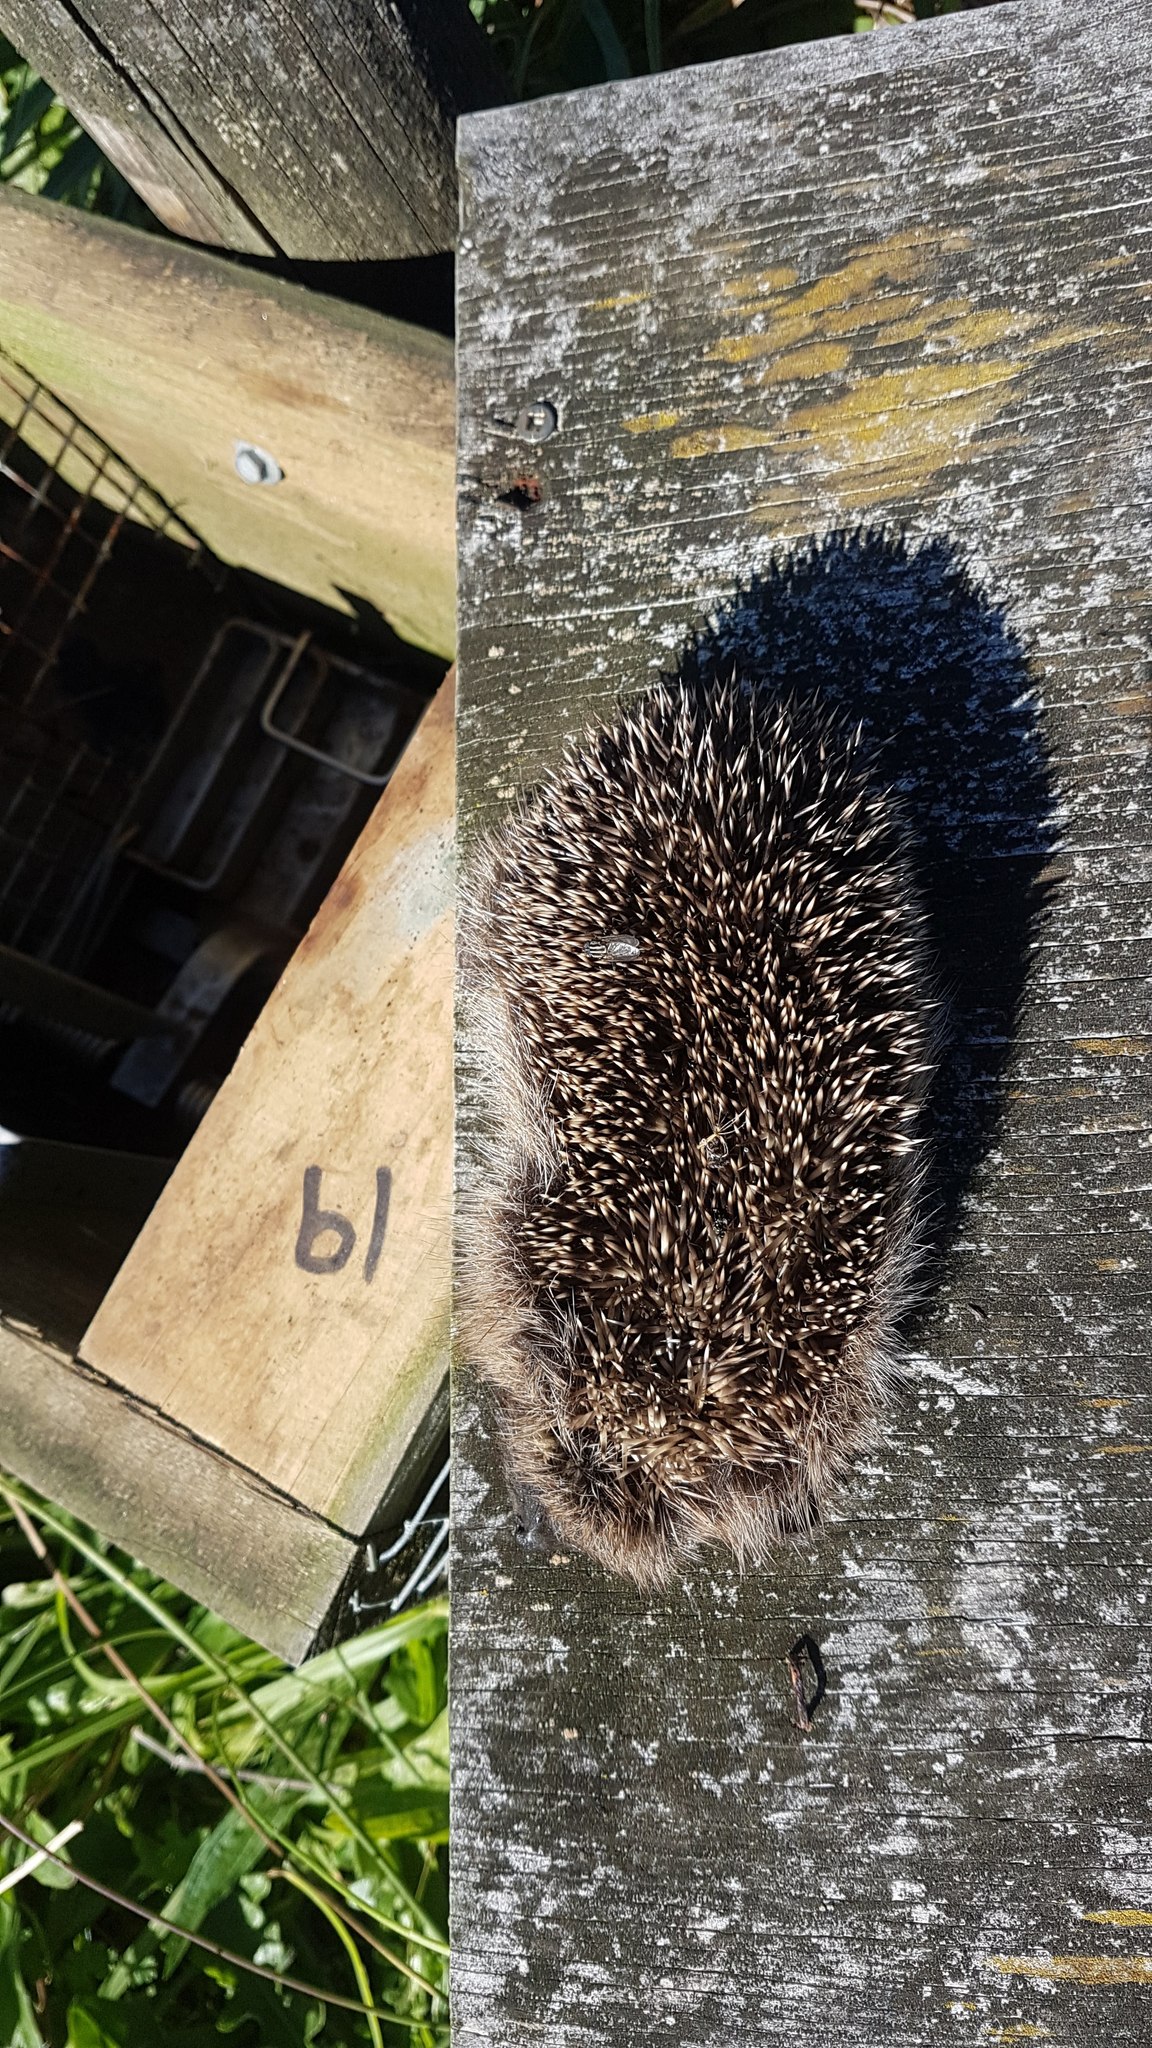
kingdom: Animalia
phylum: Chordata
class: Mammalia
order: Erinaceomorpha
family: Erinaceidae
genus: Erinaceus
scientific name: Erinaceus europaeus
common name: West european hedgehog
